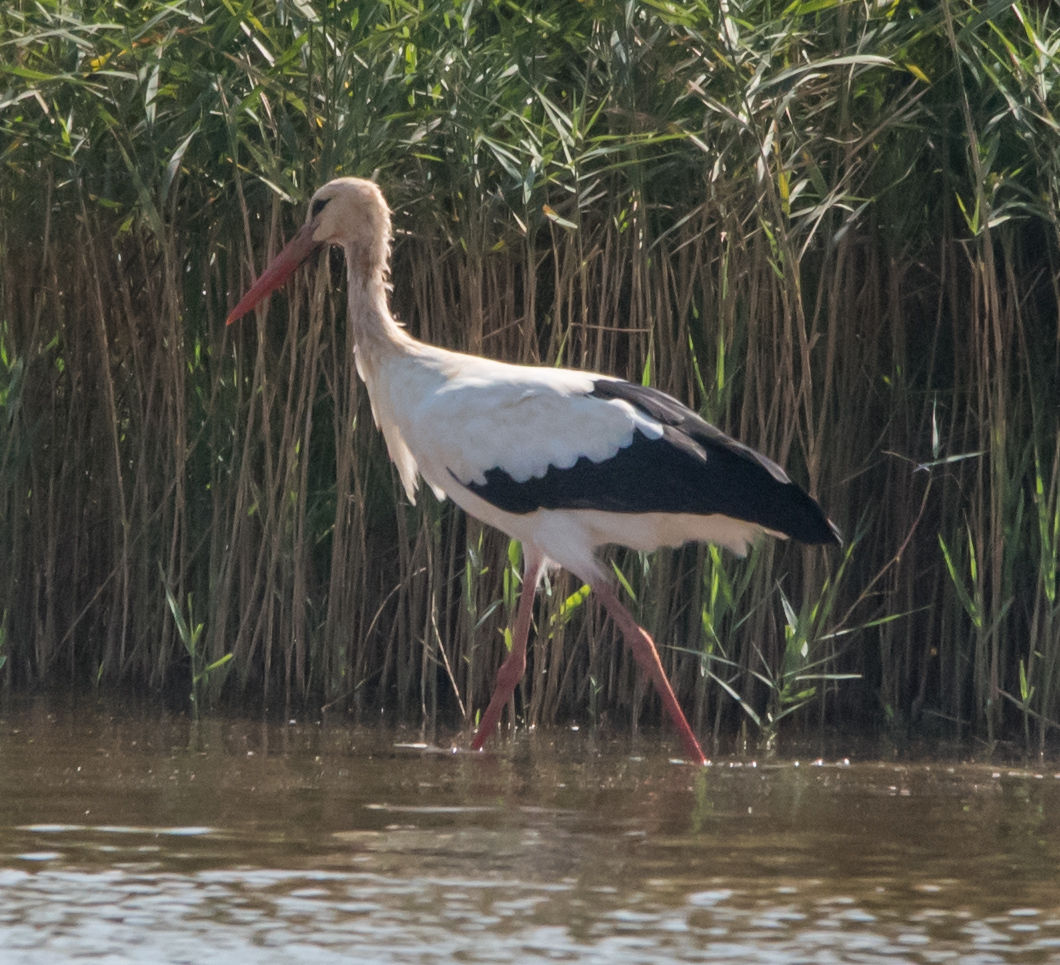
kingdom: Animalia
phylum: Chordata
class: Aves
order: Ciconiiformes
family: Ciconiidae
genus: Ciconia
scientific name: Ciconia ciconia
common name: White stork
